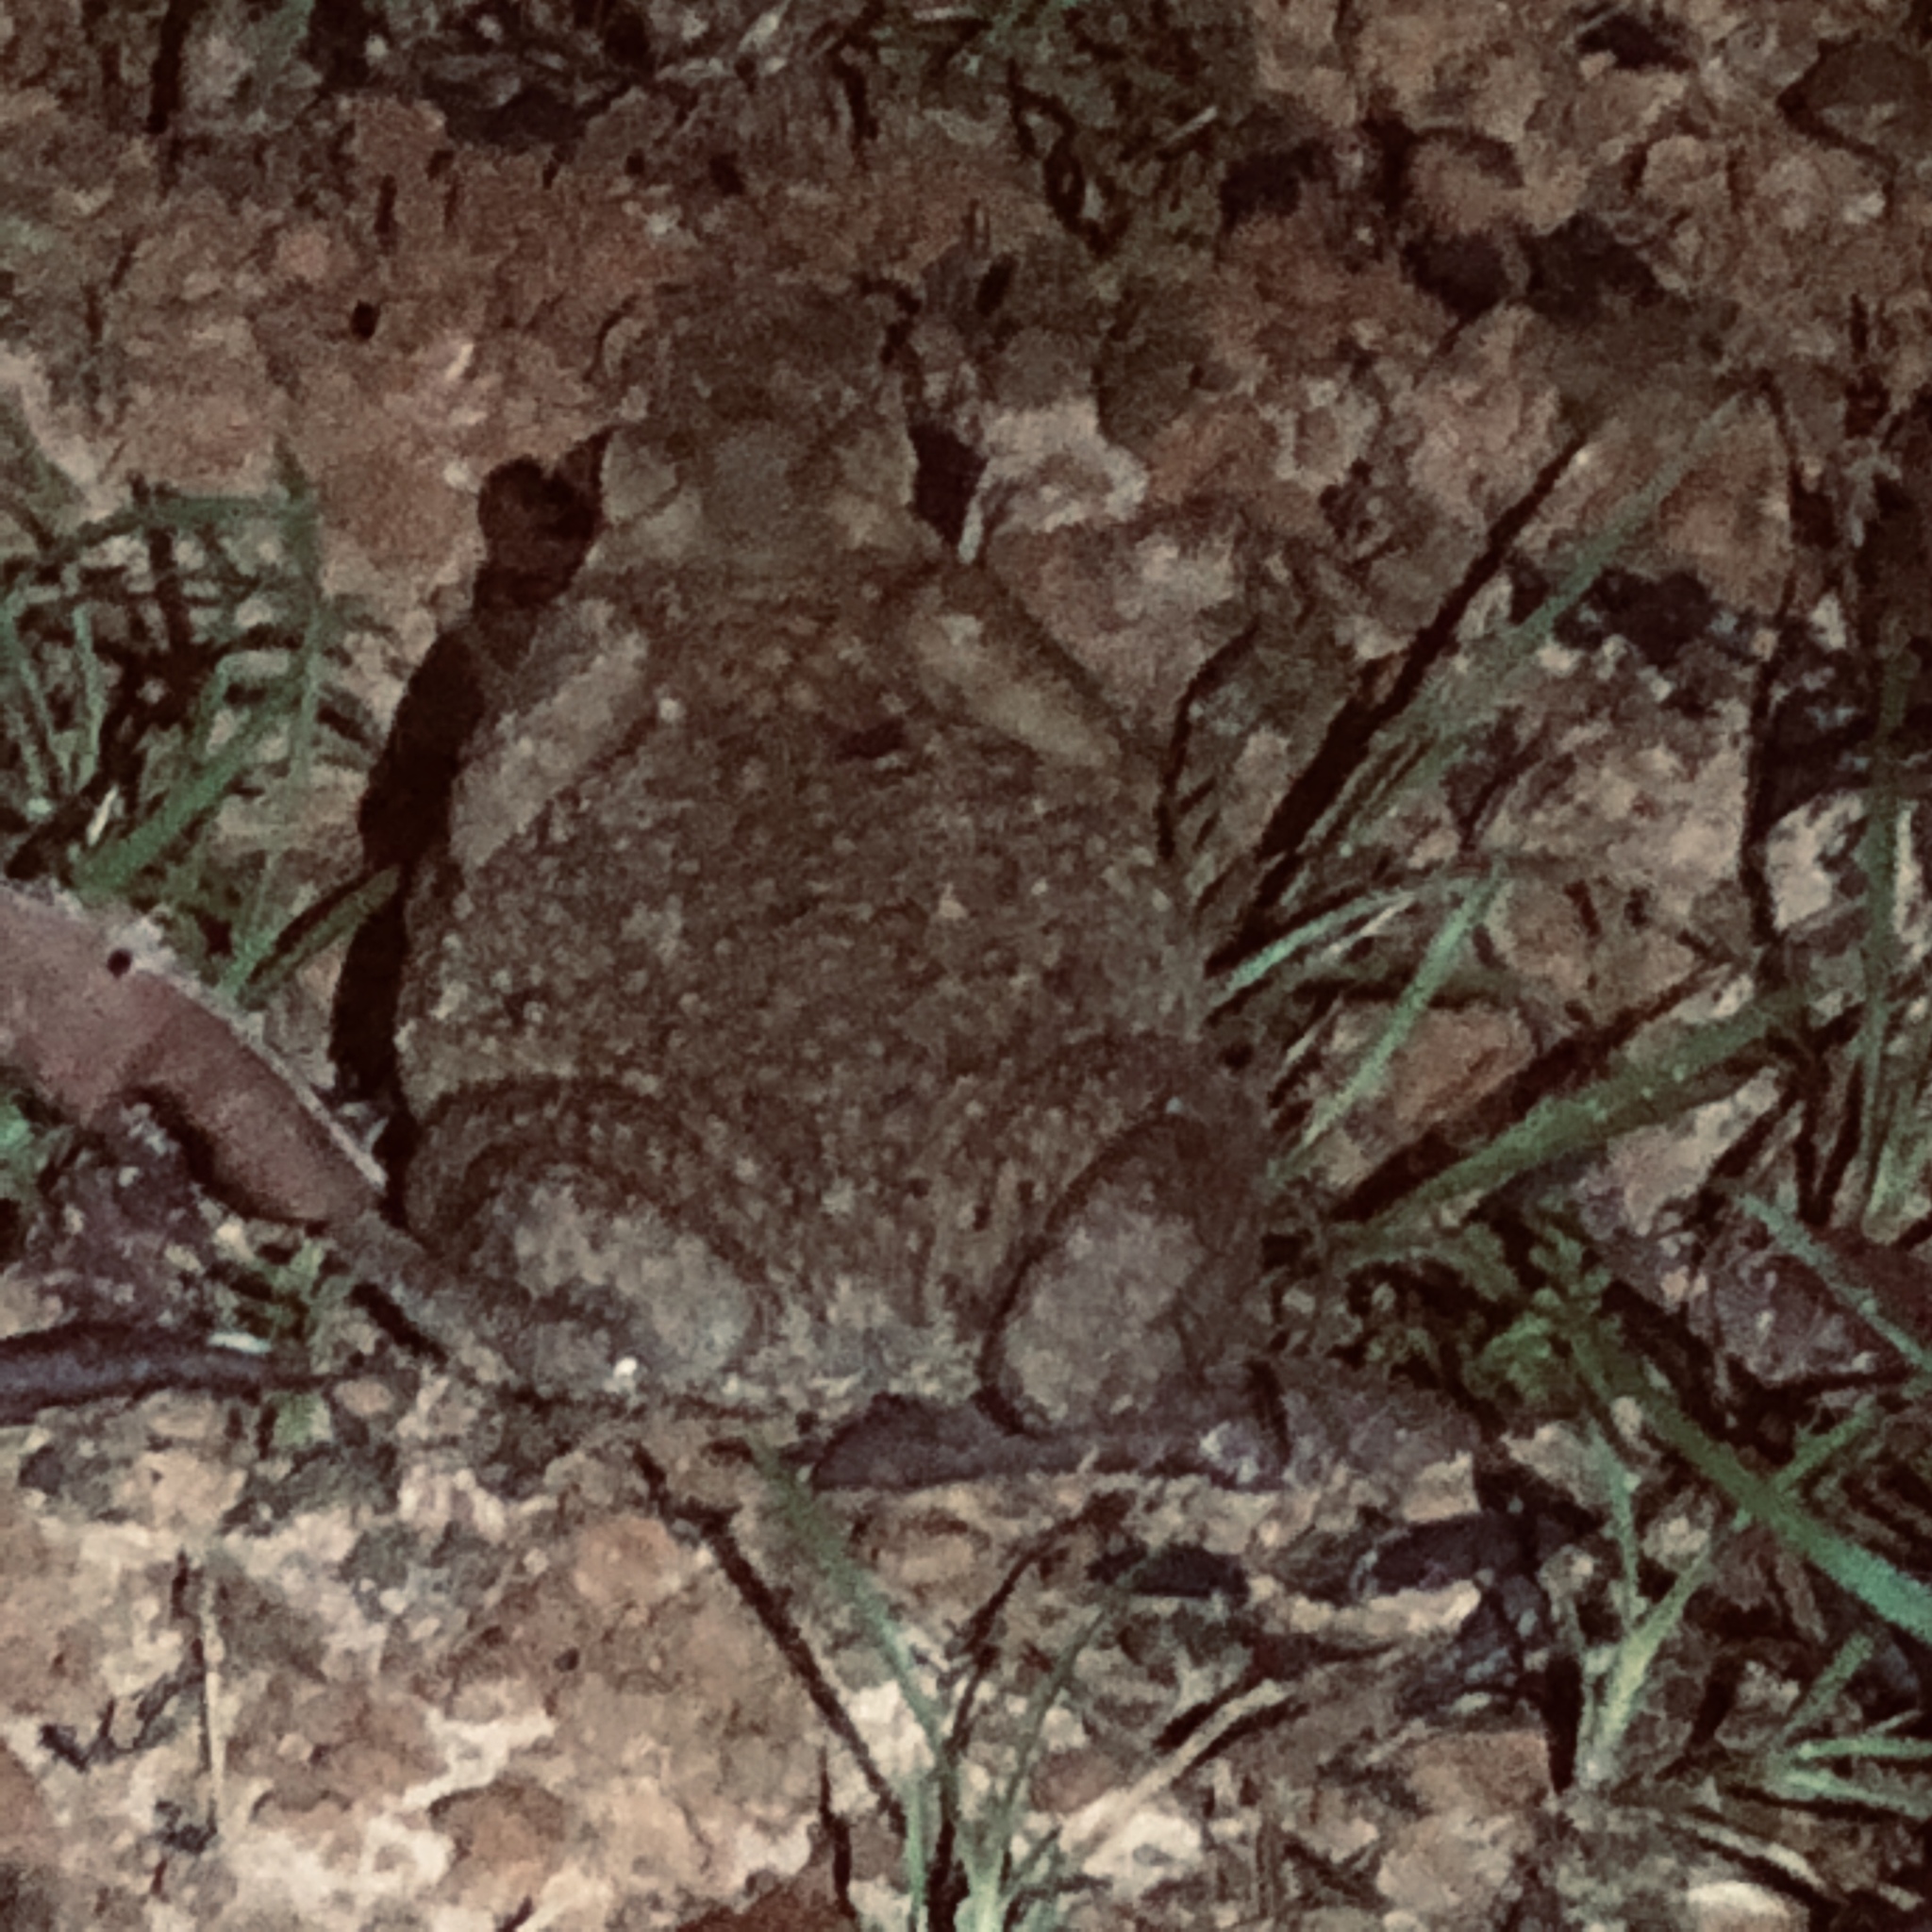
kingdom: Animalia
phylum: Chordata
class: Amphibia
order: Anura
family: Bufonidae
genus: Rhinella
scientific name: Rhinella marina
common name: Cane toad
